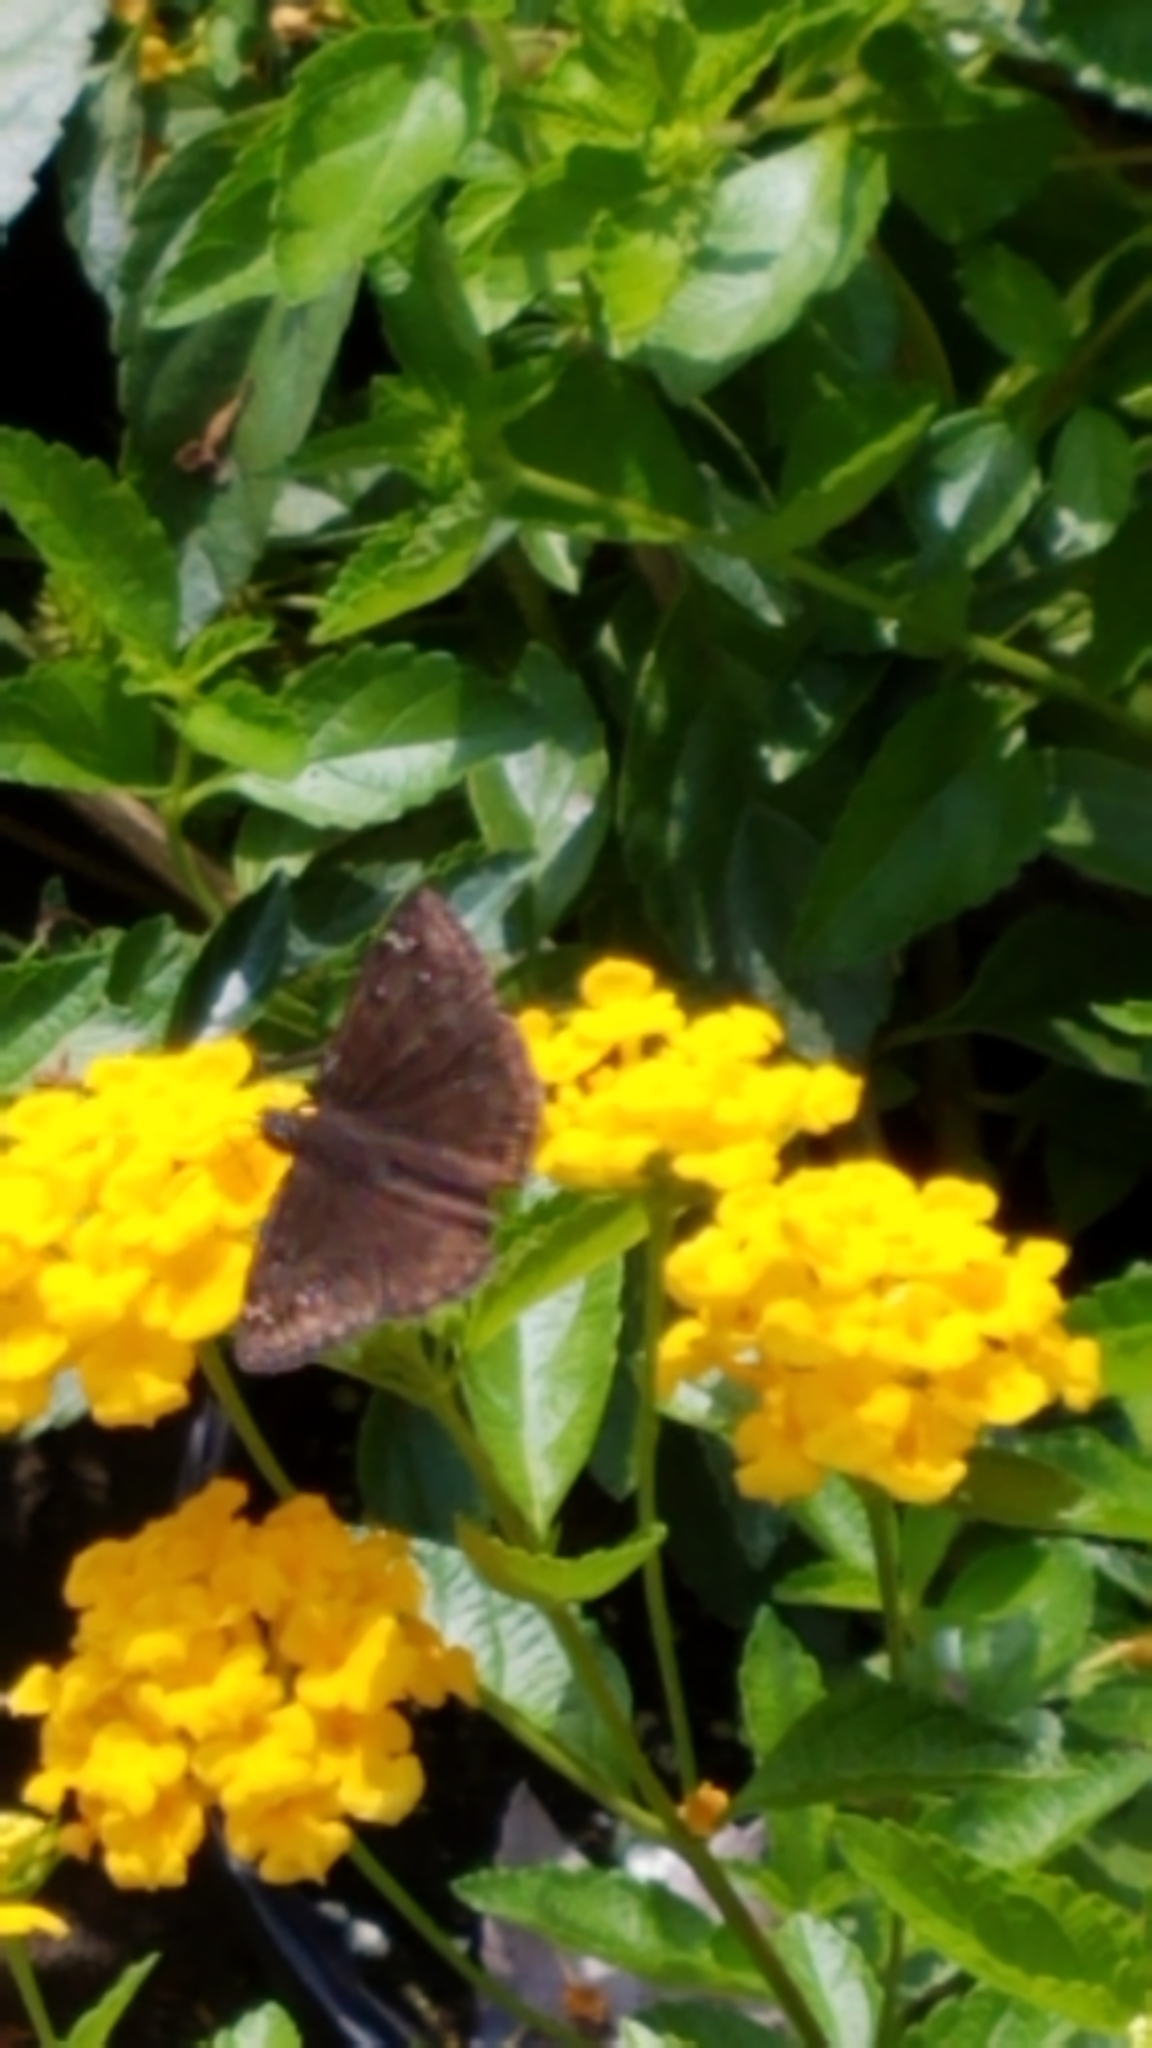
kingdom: Animalia
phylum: Arthropoda
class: Insecta
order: Lepidoptera
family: Hesperiidae
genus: Erynnis
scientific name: Erynnis horatius
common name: Horace's duskywing
